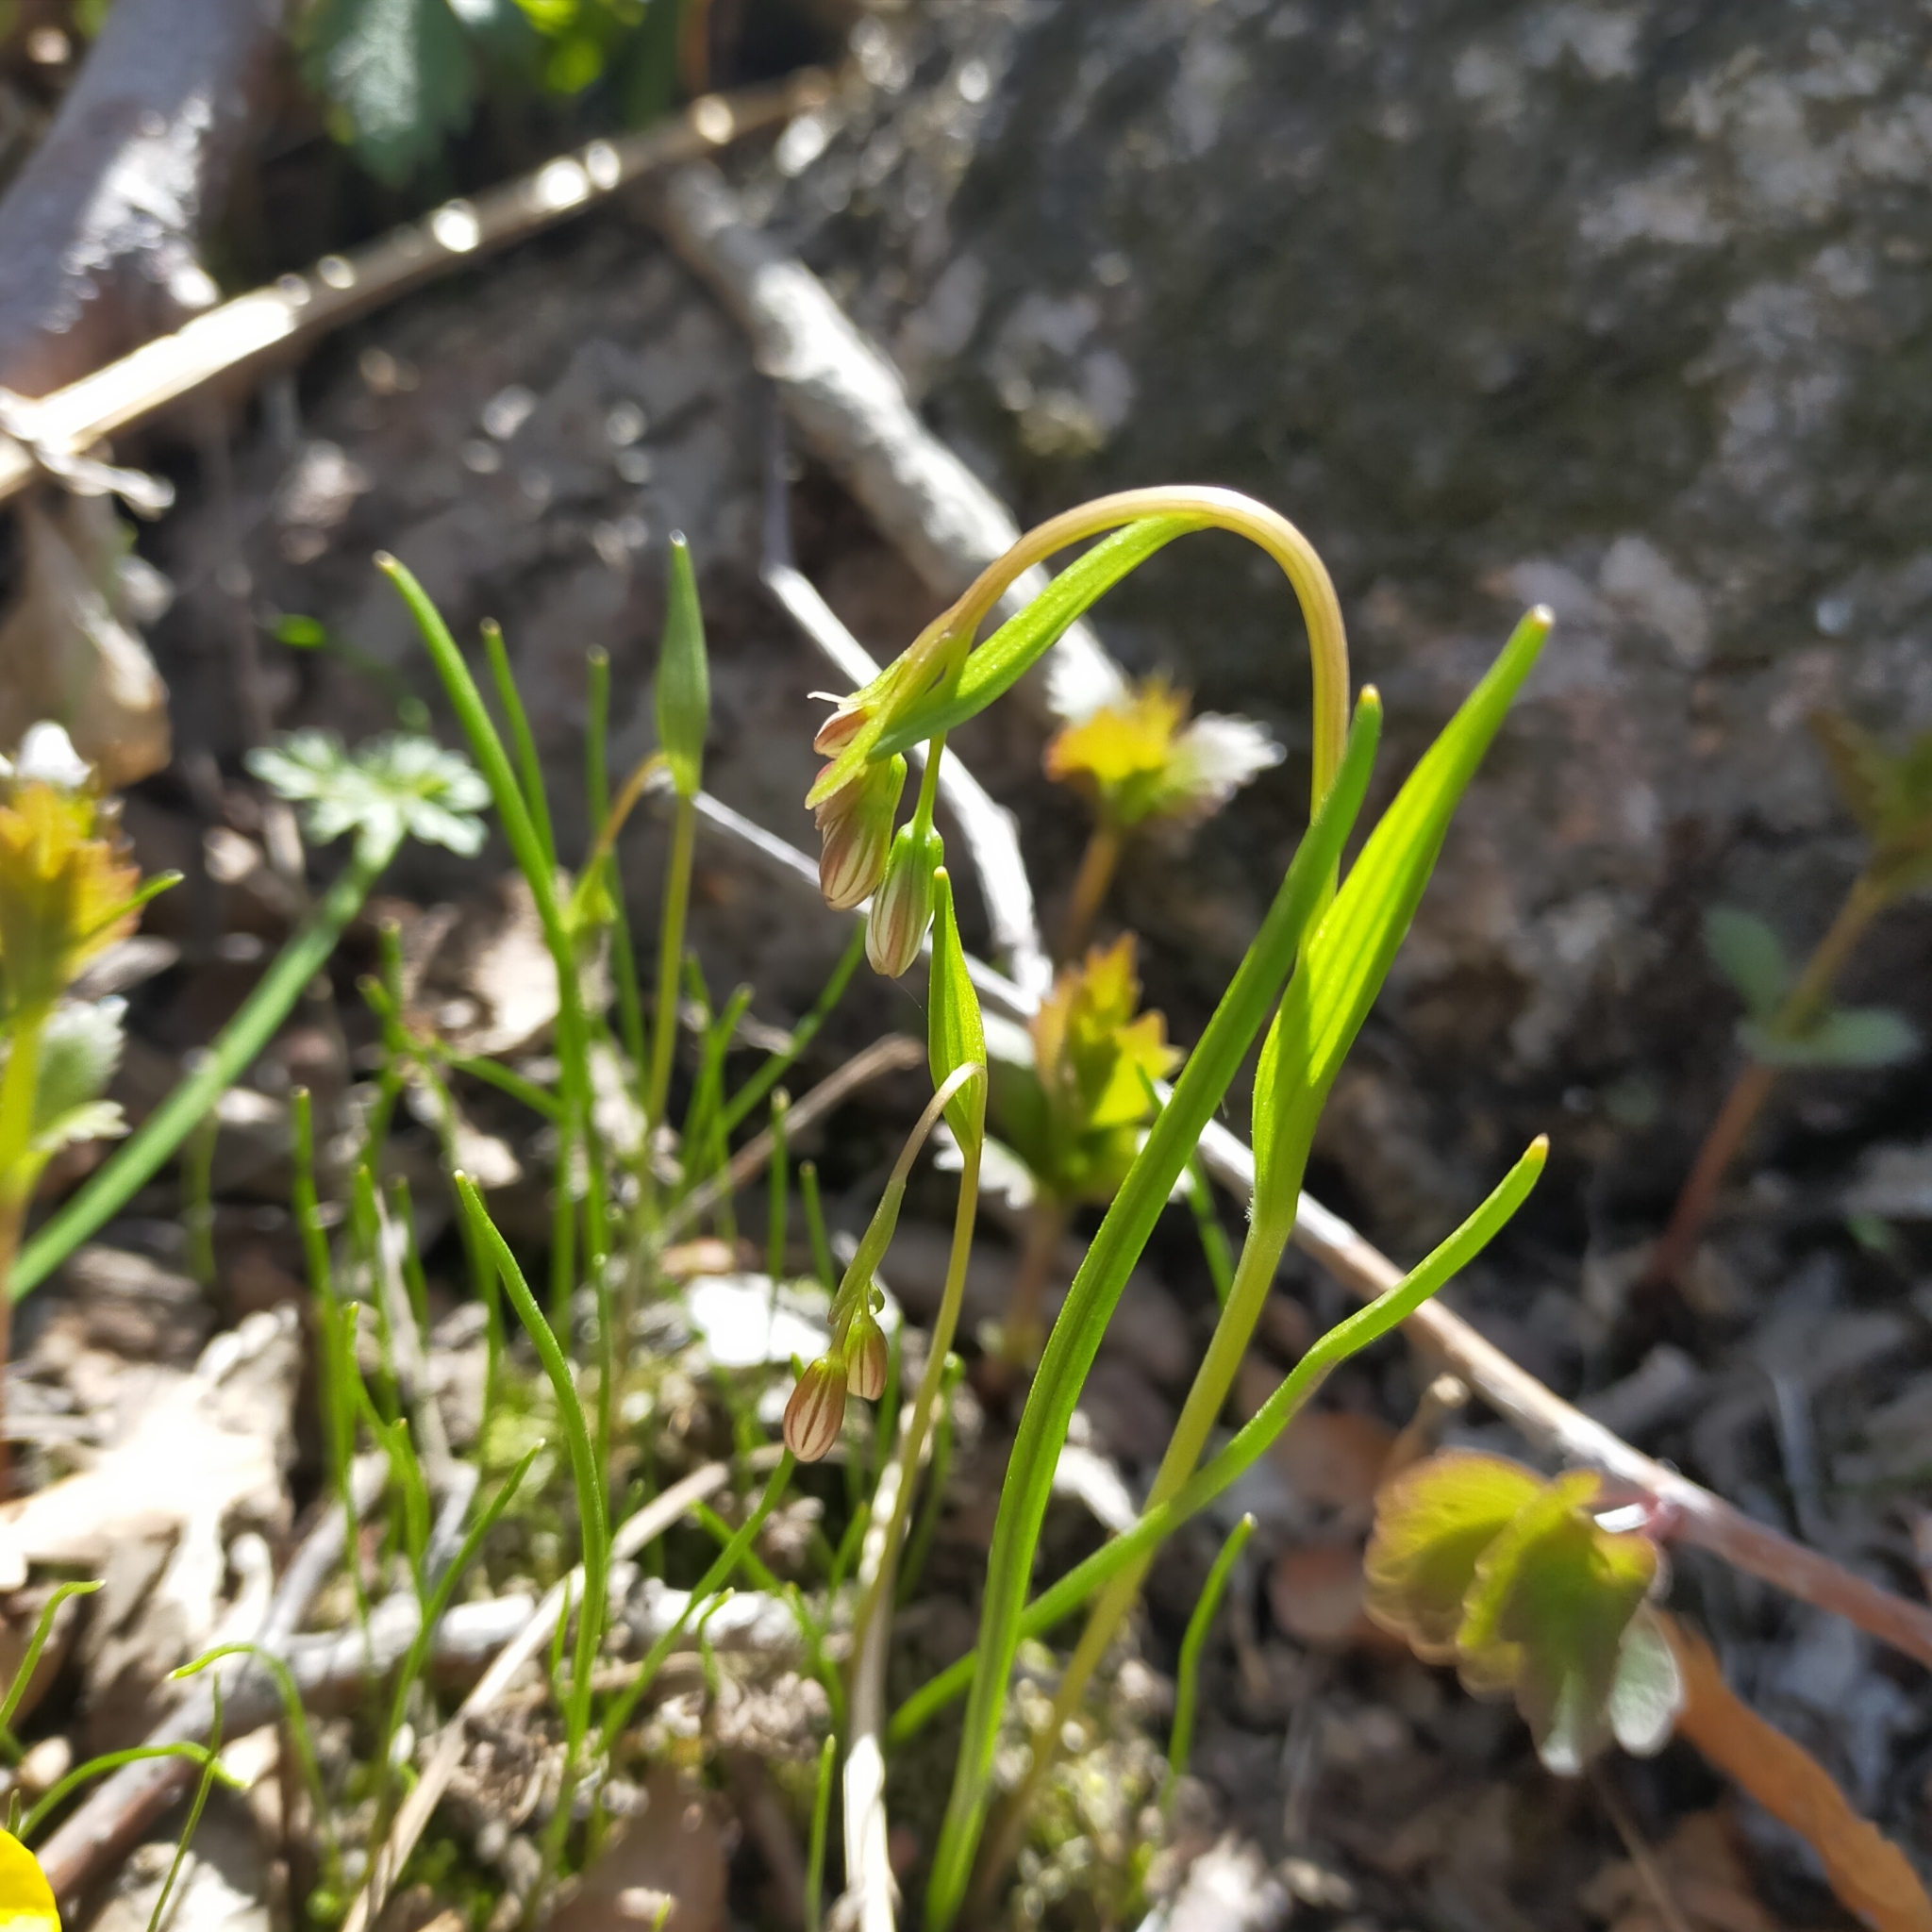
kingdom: Plantae
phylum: Tracheophyta
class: Liliopsida
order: Liliales
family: Liliaceae
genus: Gagea
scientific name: Gagea triflora
